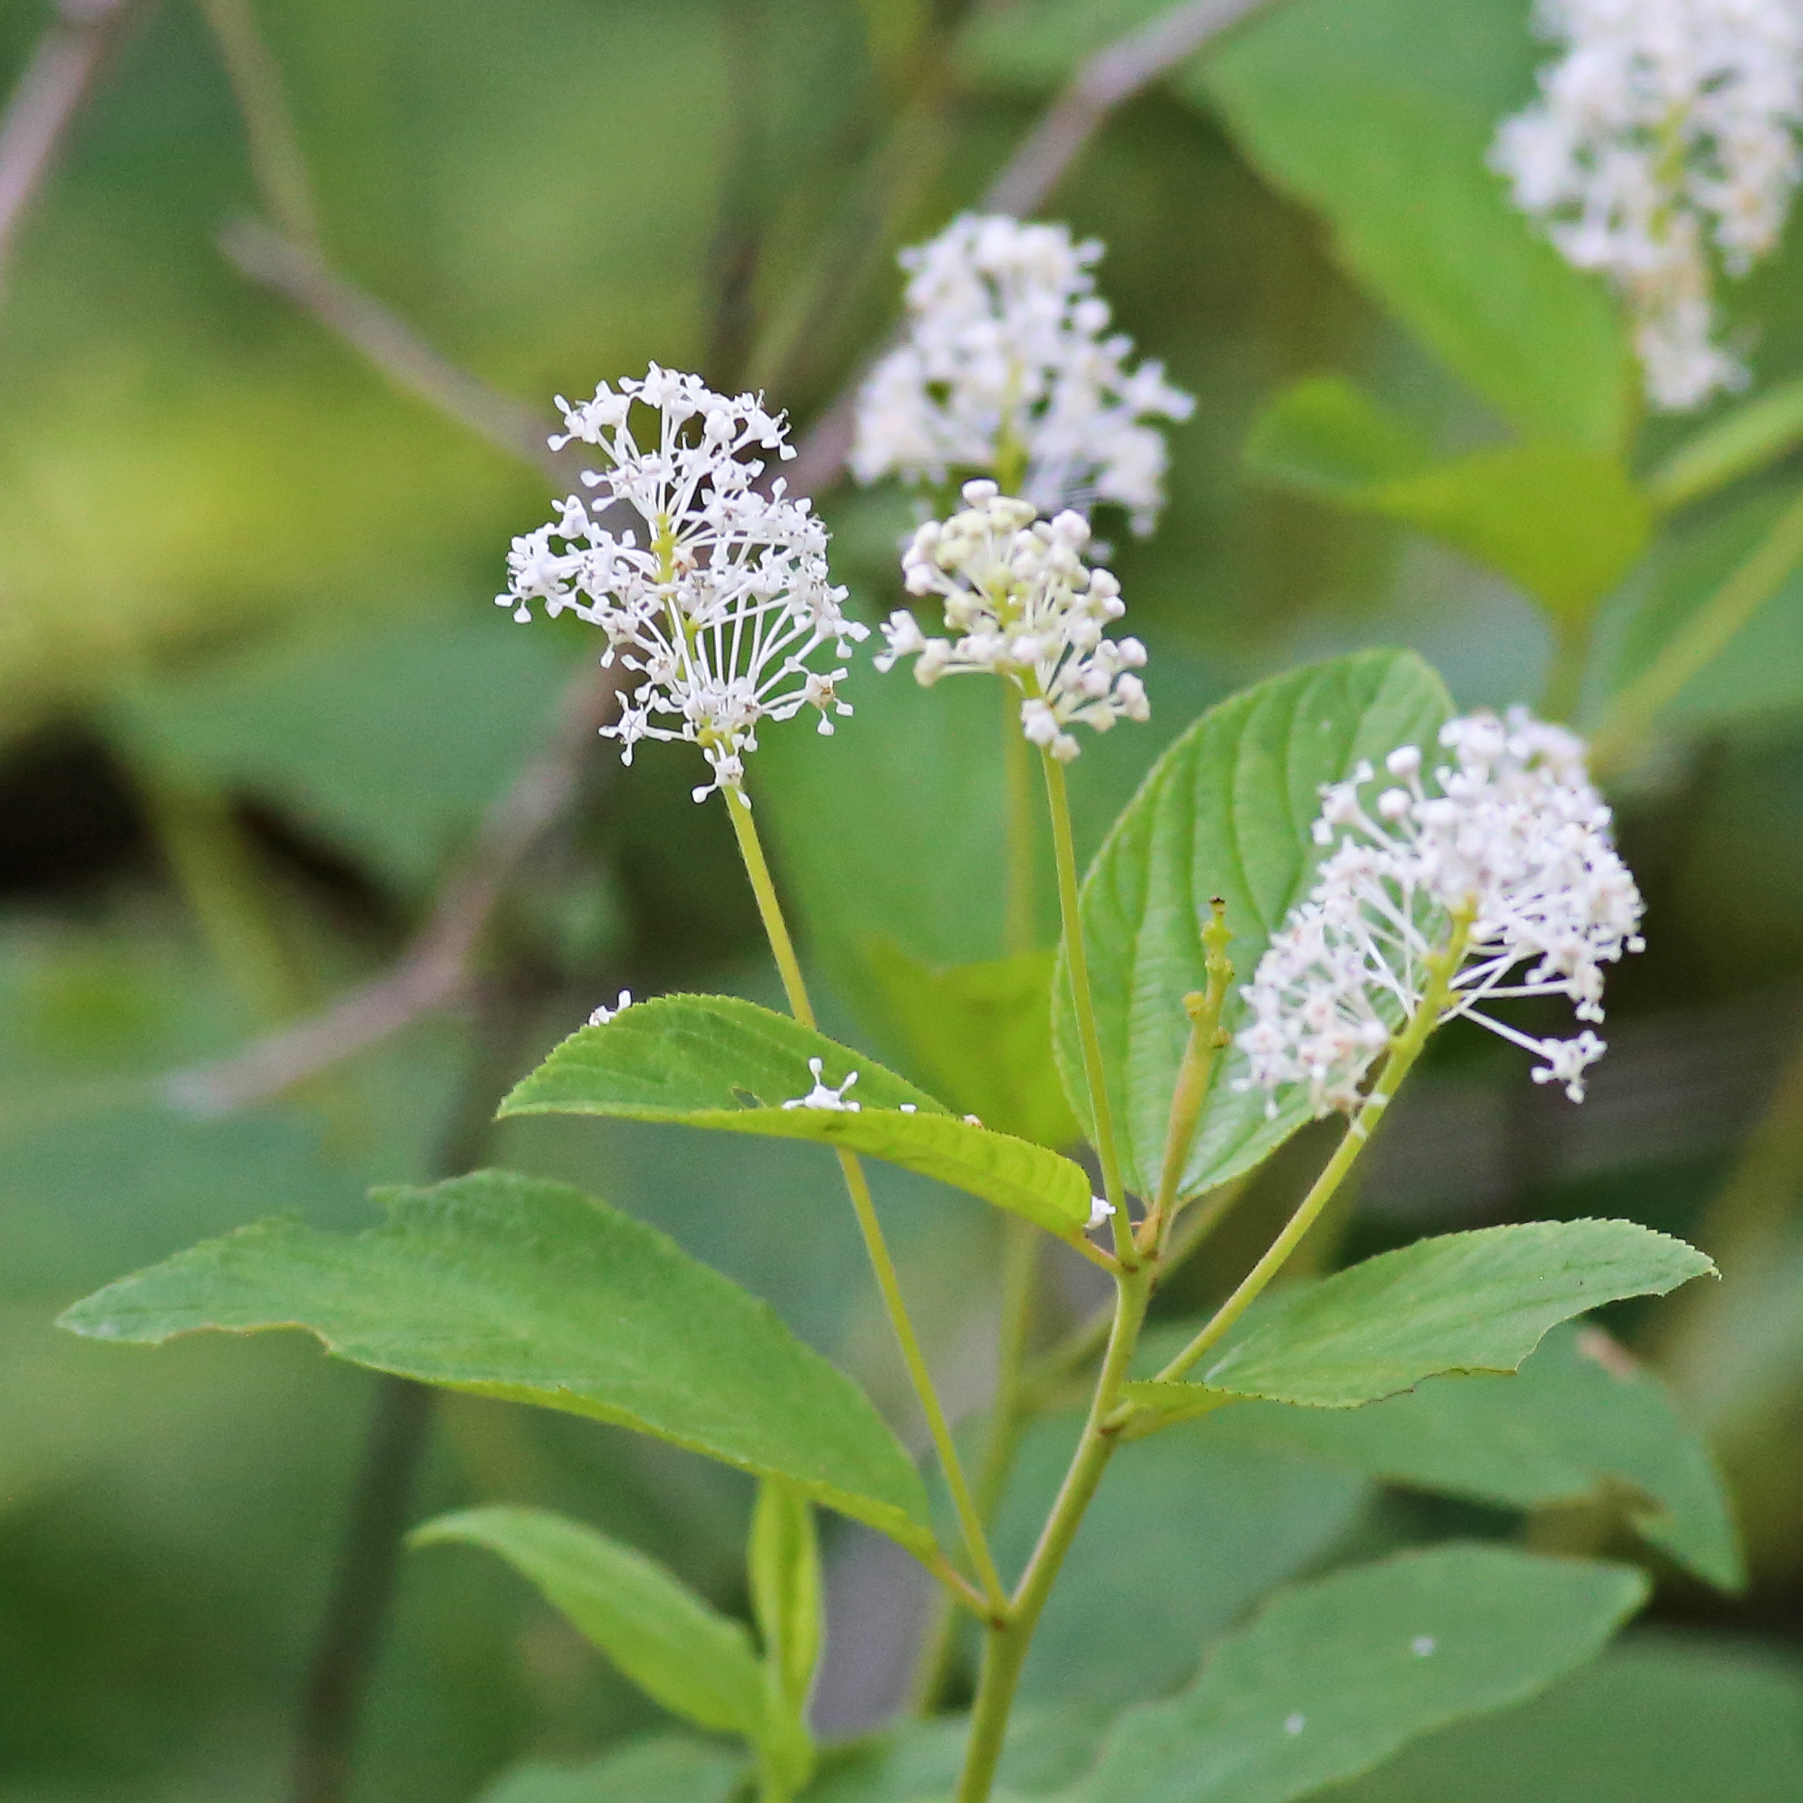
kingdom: Plantae
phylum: Tracheophyta
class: Magnoliopsida
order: Rosales
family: Rhamnaceae
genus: Ceanothus
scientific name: Ceanothus americanus
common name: Redroot
